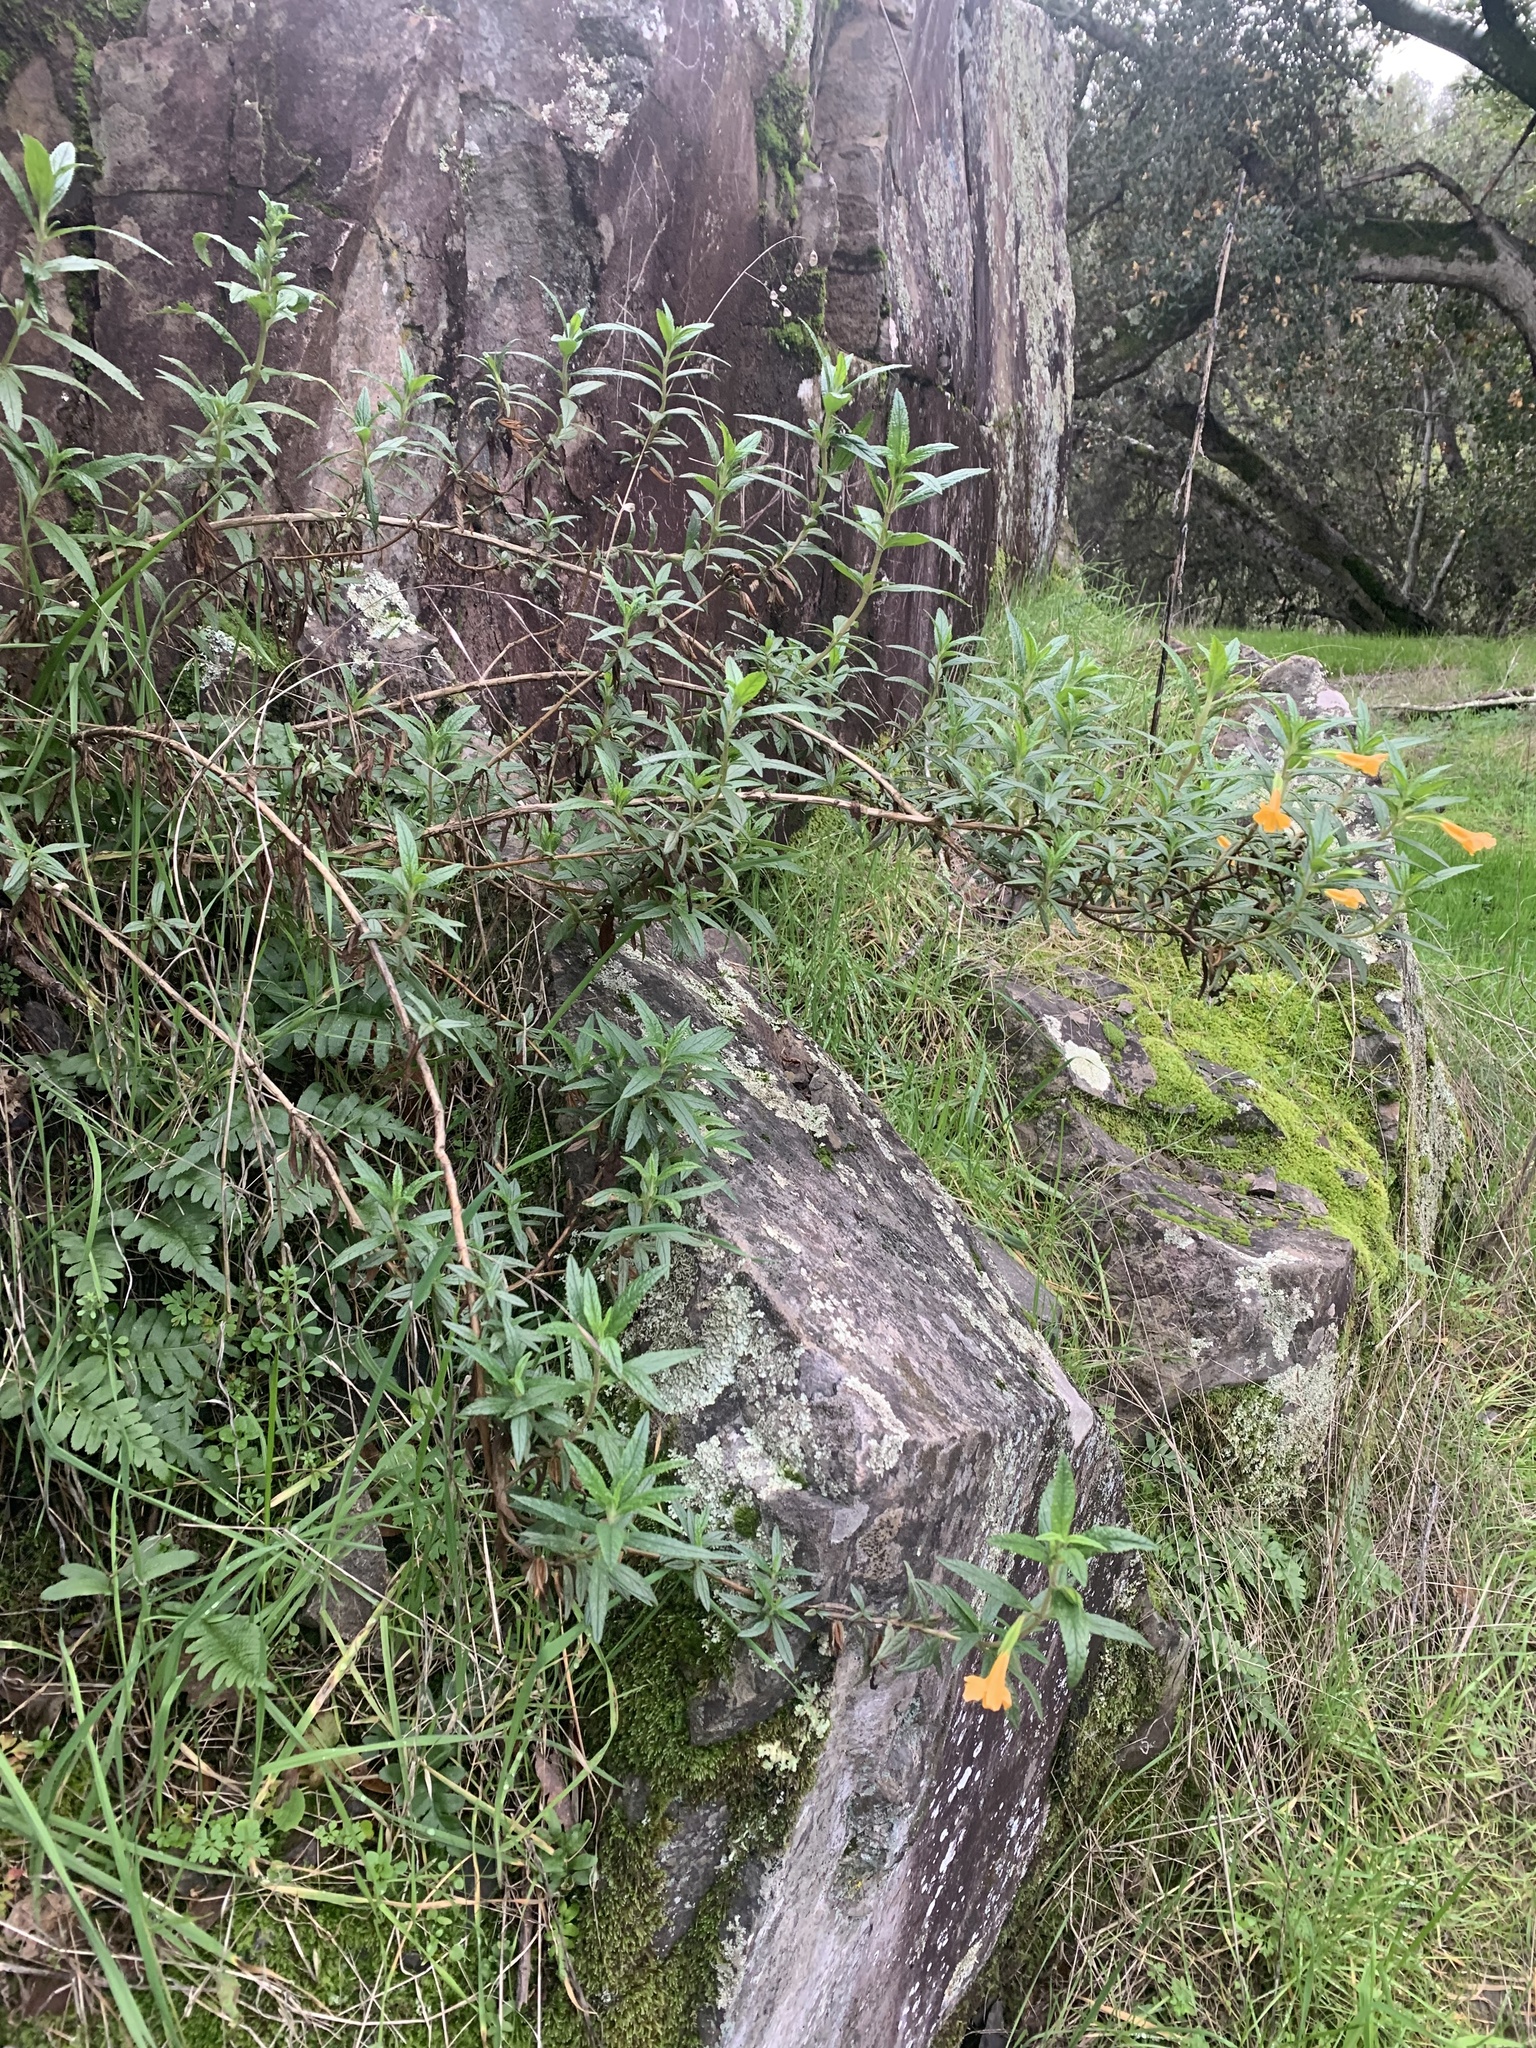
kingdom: Plantae
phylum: Tracheophyta
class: Magnoliopsida
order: Lamiales
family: Phrymaceae
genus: Diplacus
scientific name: Diplacus aurantiacus
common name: Bush monkey-flower
